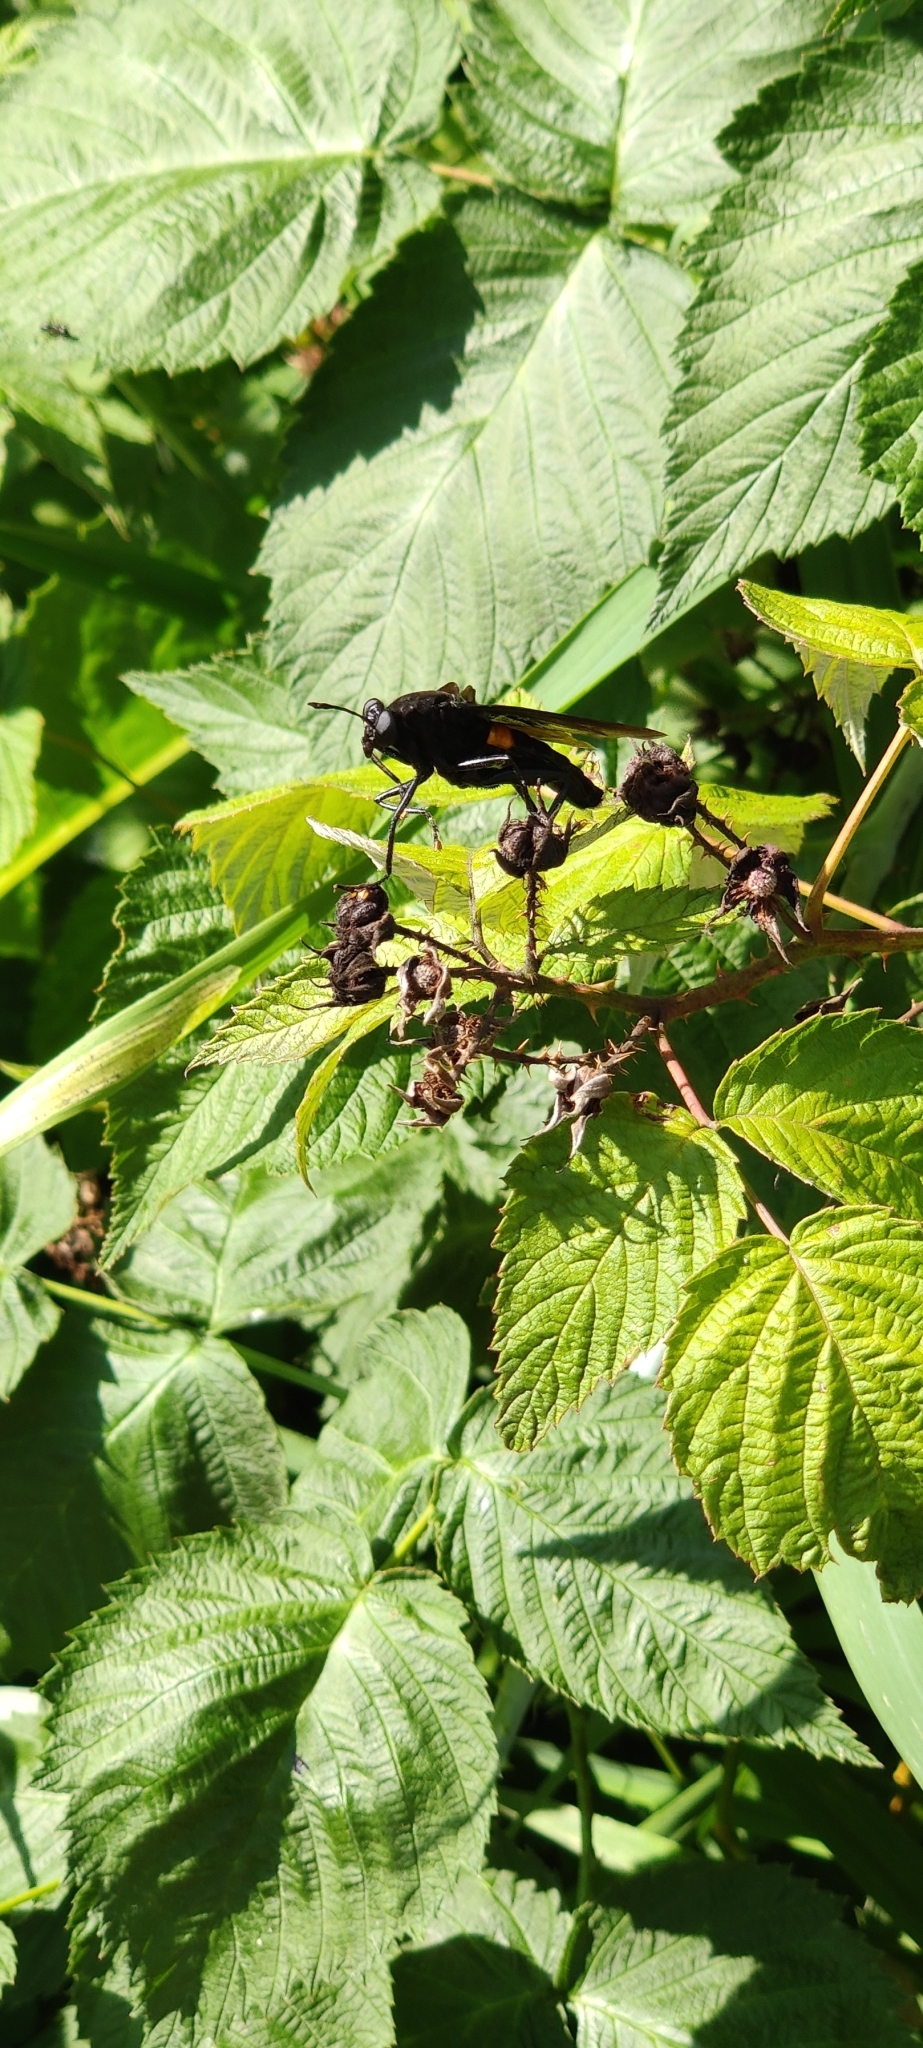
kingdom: Animalia
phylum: Arthropoda
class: Insecta
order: Diptera
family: Mydidae
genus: Mydas
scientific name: Mydas clavatus
